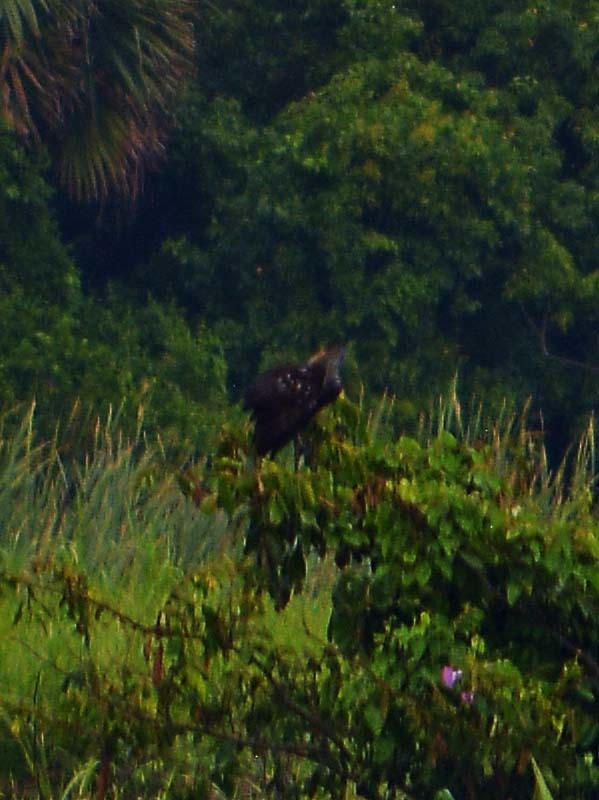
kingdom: Animalia
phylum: Chordata
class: Aves
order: Gruiformes
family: Aramidae
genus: Aramus
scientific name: Aramus guarauna
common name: Limpkin
